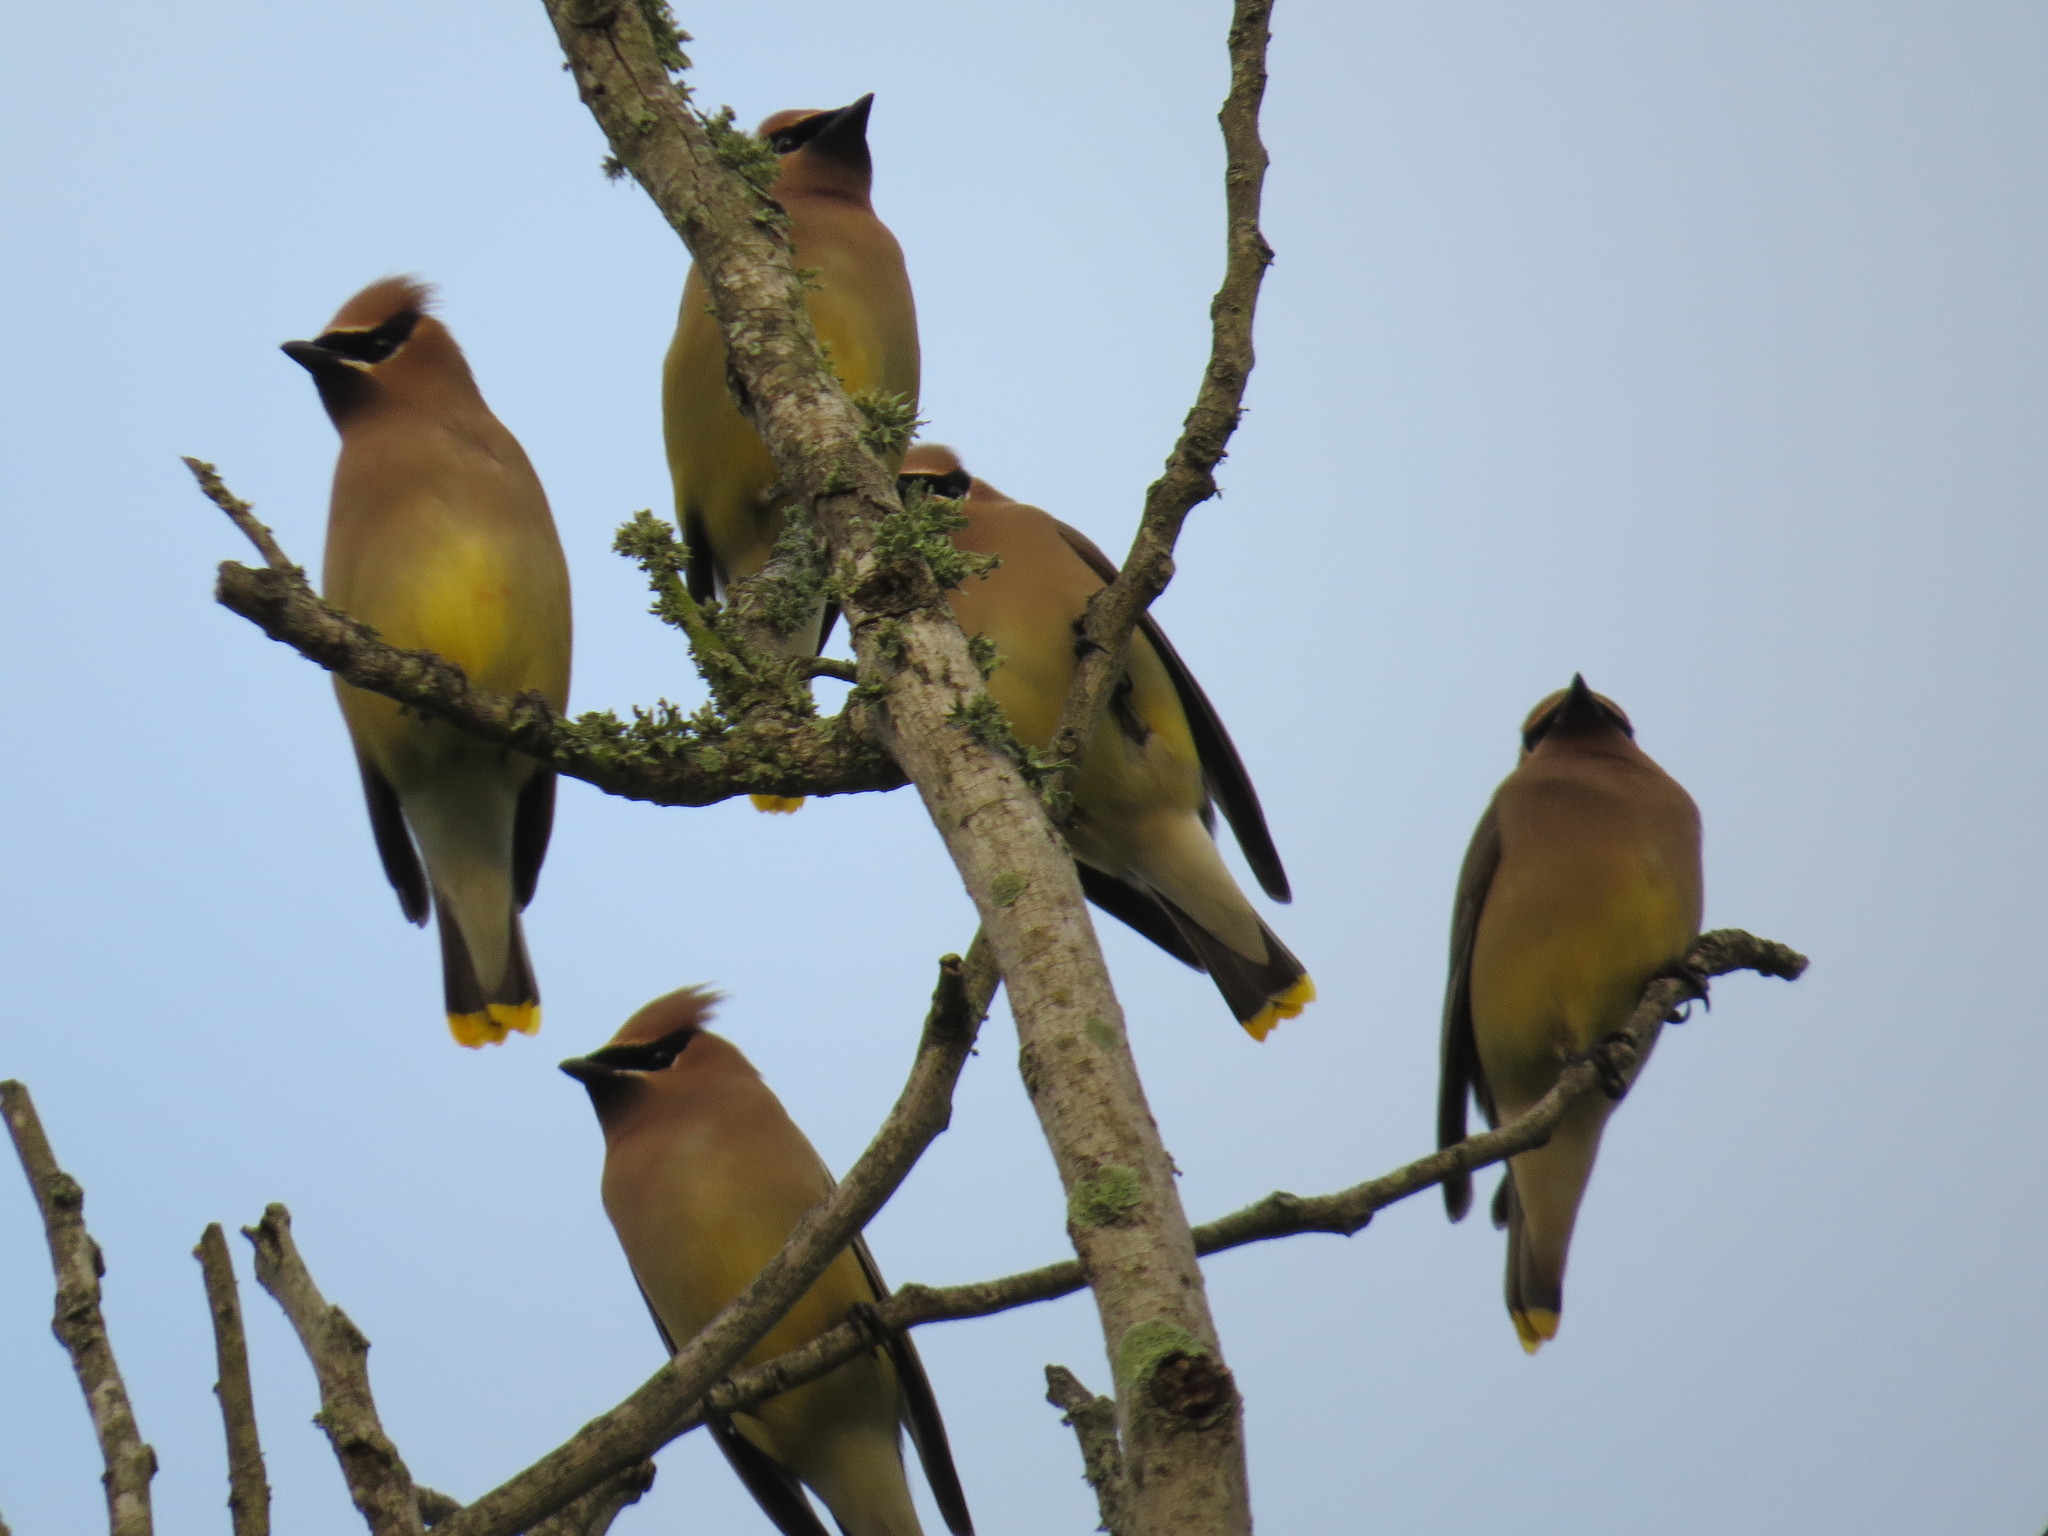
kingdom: Animalia
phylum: Chordata
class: Aves
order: Passeriformes
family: Bombycillidae
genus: Bombycilla
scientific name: Bombycilla cedrorum
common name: Cedar waxwing
